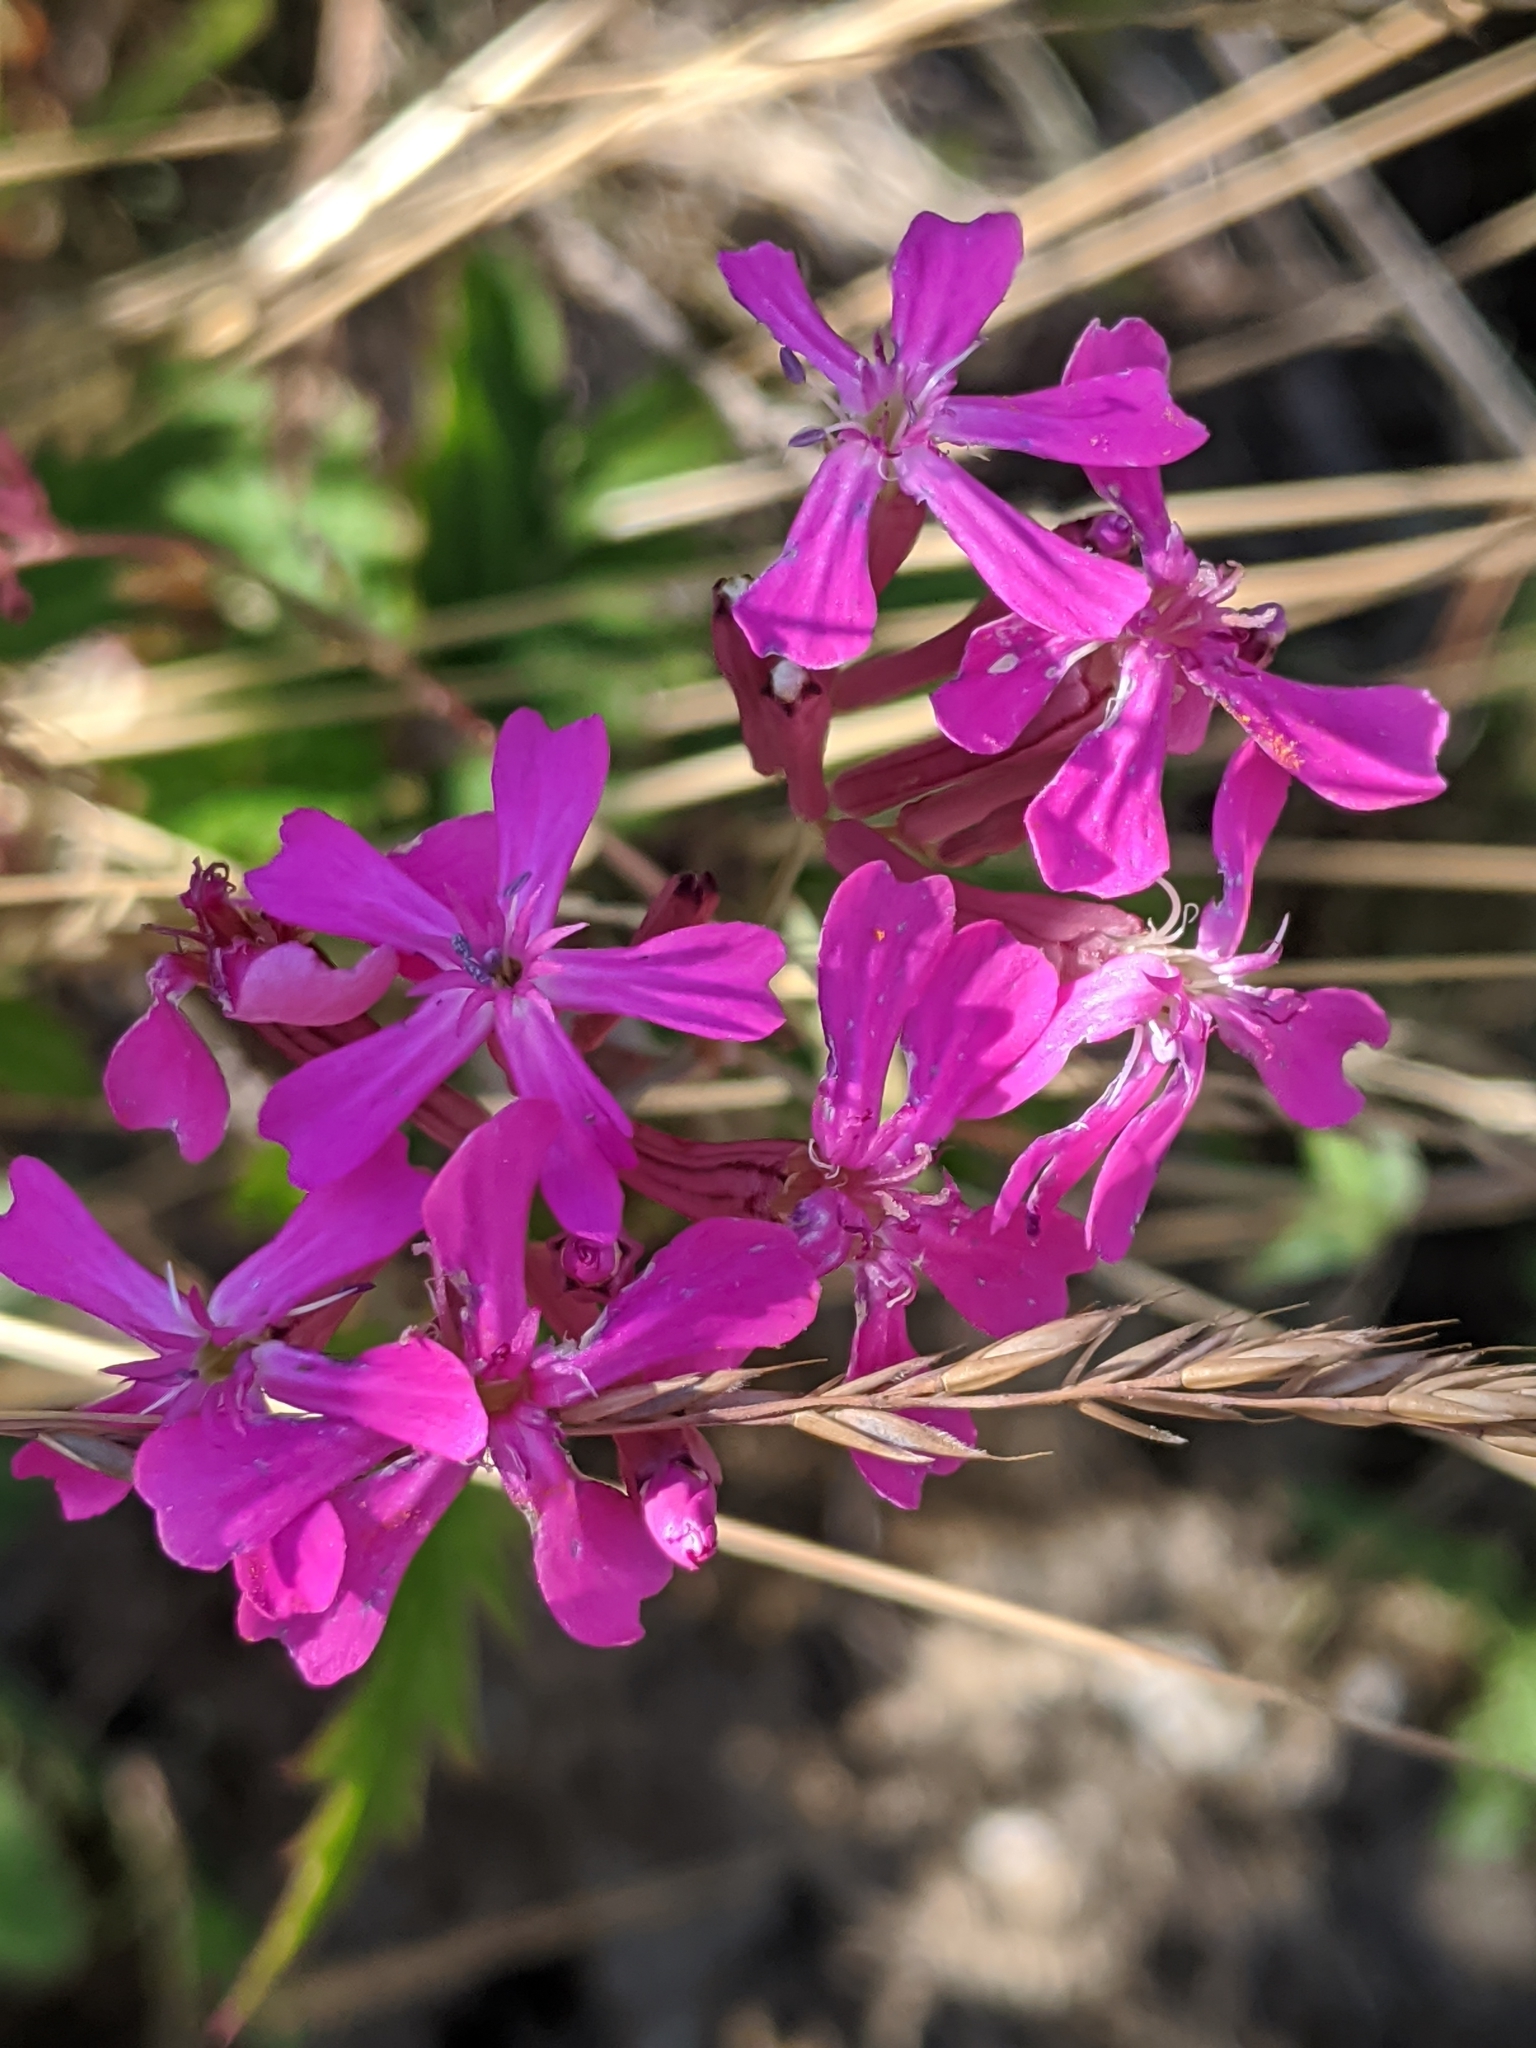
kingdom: Plantae
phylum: Tracheophyta
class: Magnoliopsida
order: Caryophyllales
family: Caryophyllaceae
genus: Atocion
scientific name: Atocion armeria
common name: Sweet william catchfly
